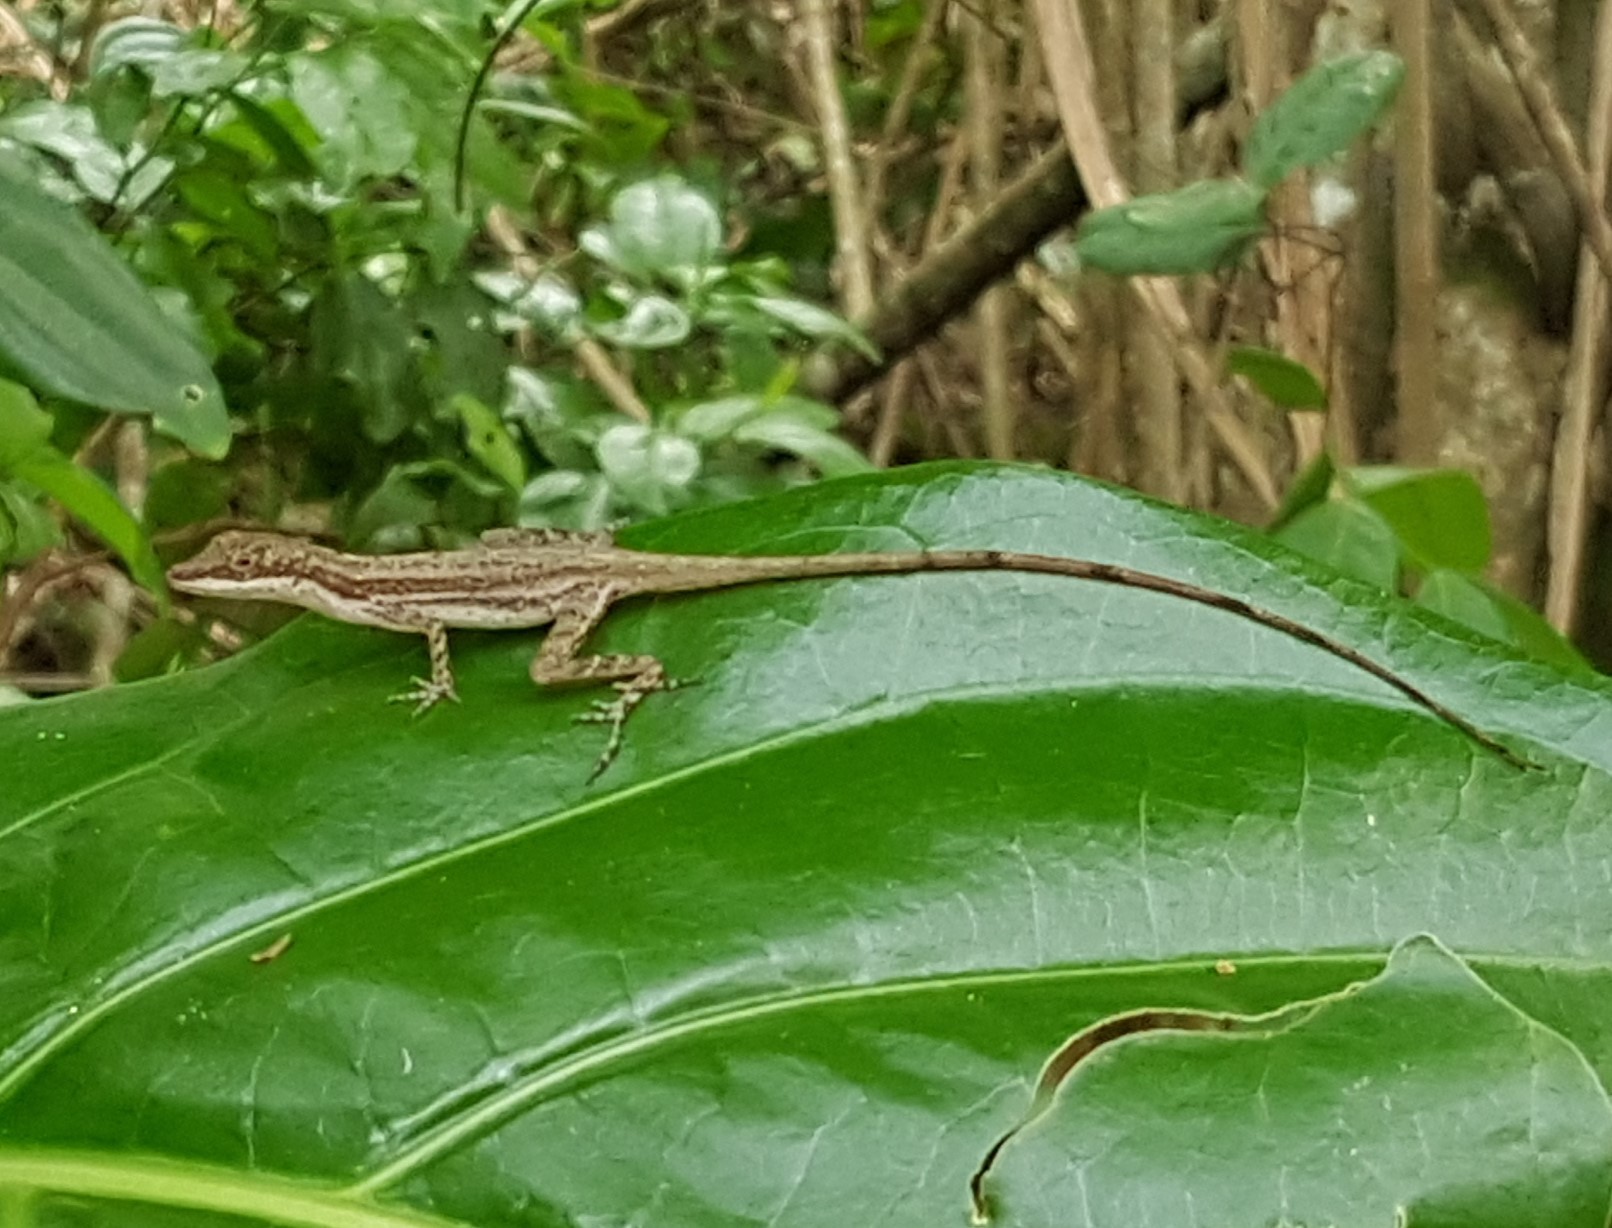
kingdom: Animalia
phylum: Chordata
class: Squamata
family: Dactyloidae
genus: Anolis
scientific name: Anolis limifrons
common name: Border anole
